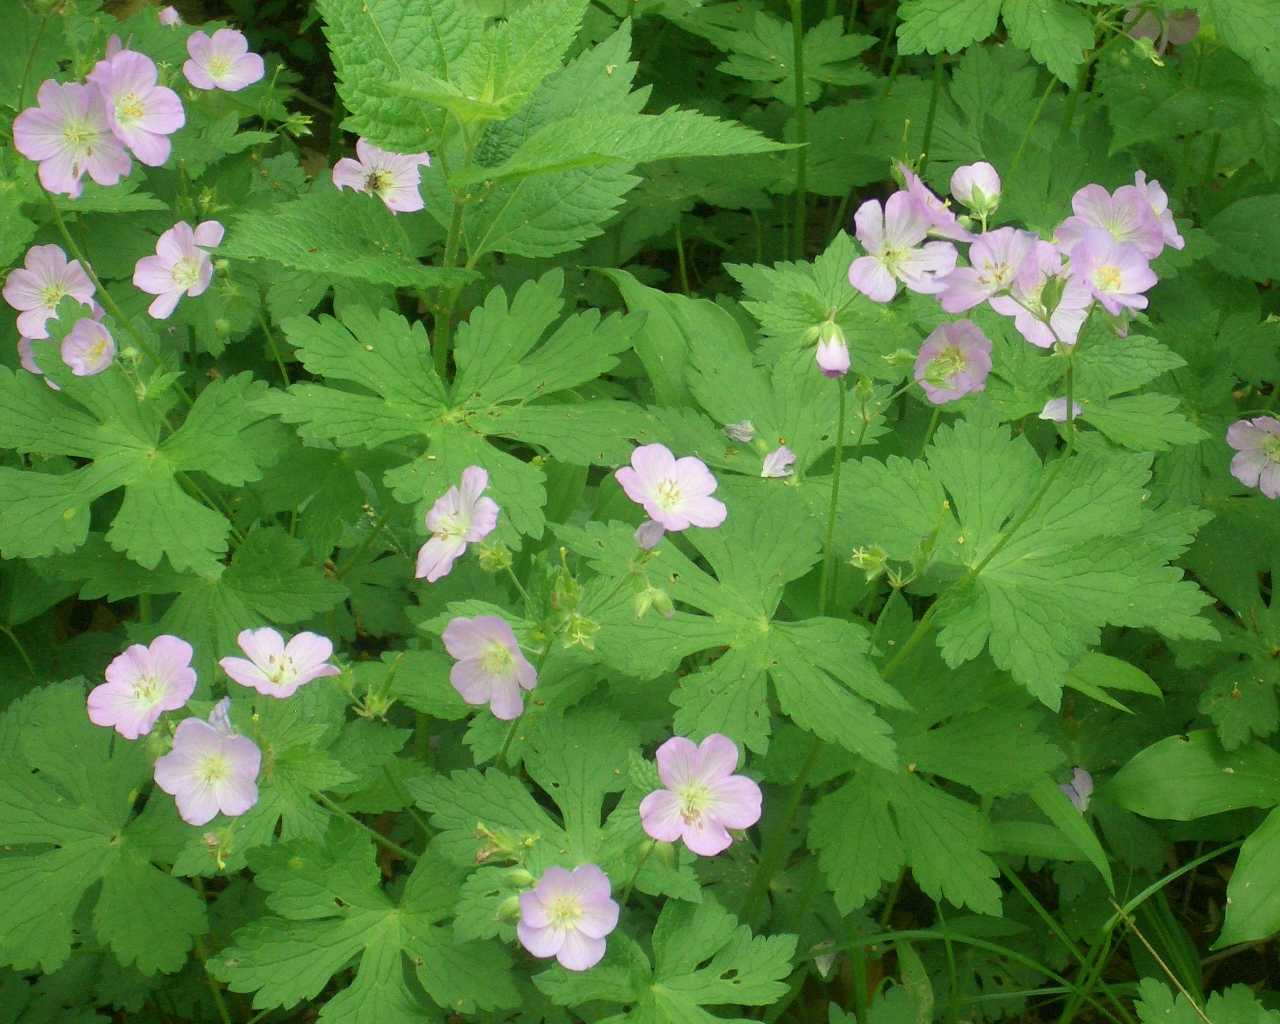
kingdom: Plantae
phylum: Tracheophyta
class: Magnoliopsida
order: Geraniales
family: Geraniaceae
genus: Geranium
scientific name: Geranium maculatum
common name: Spotted geranium
